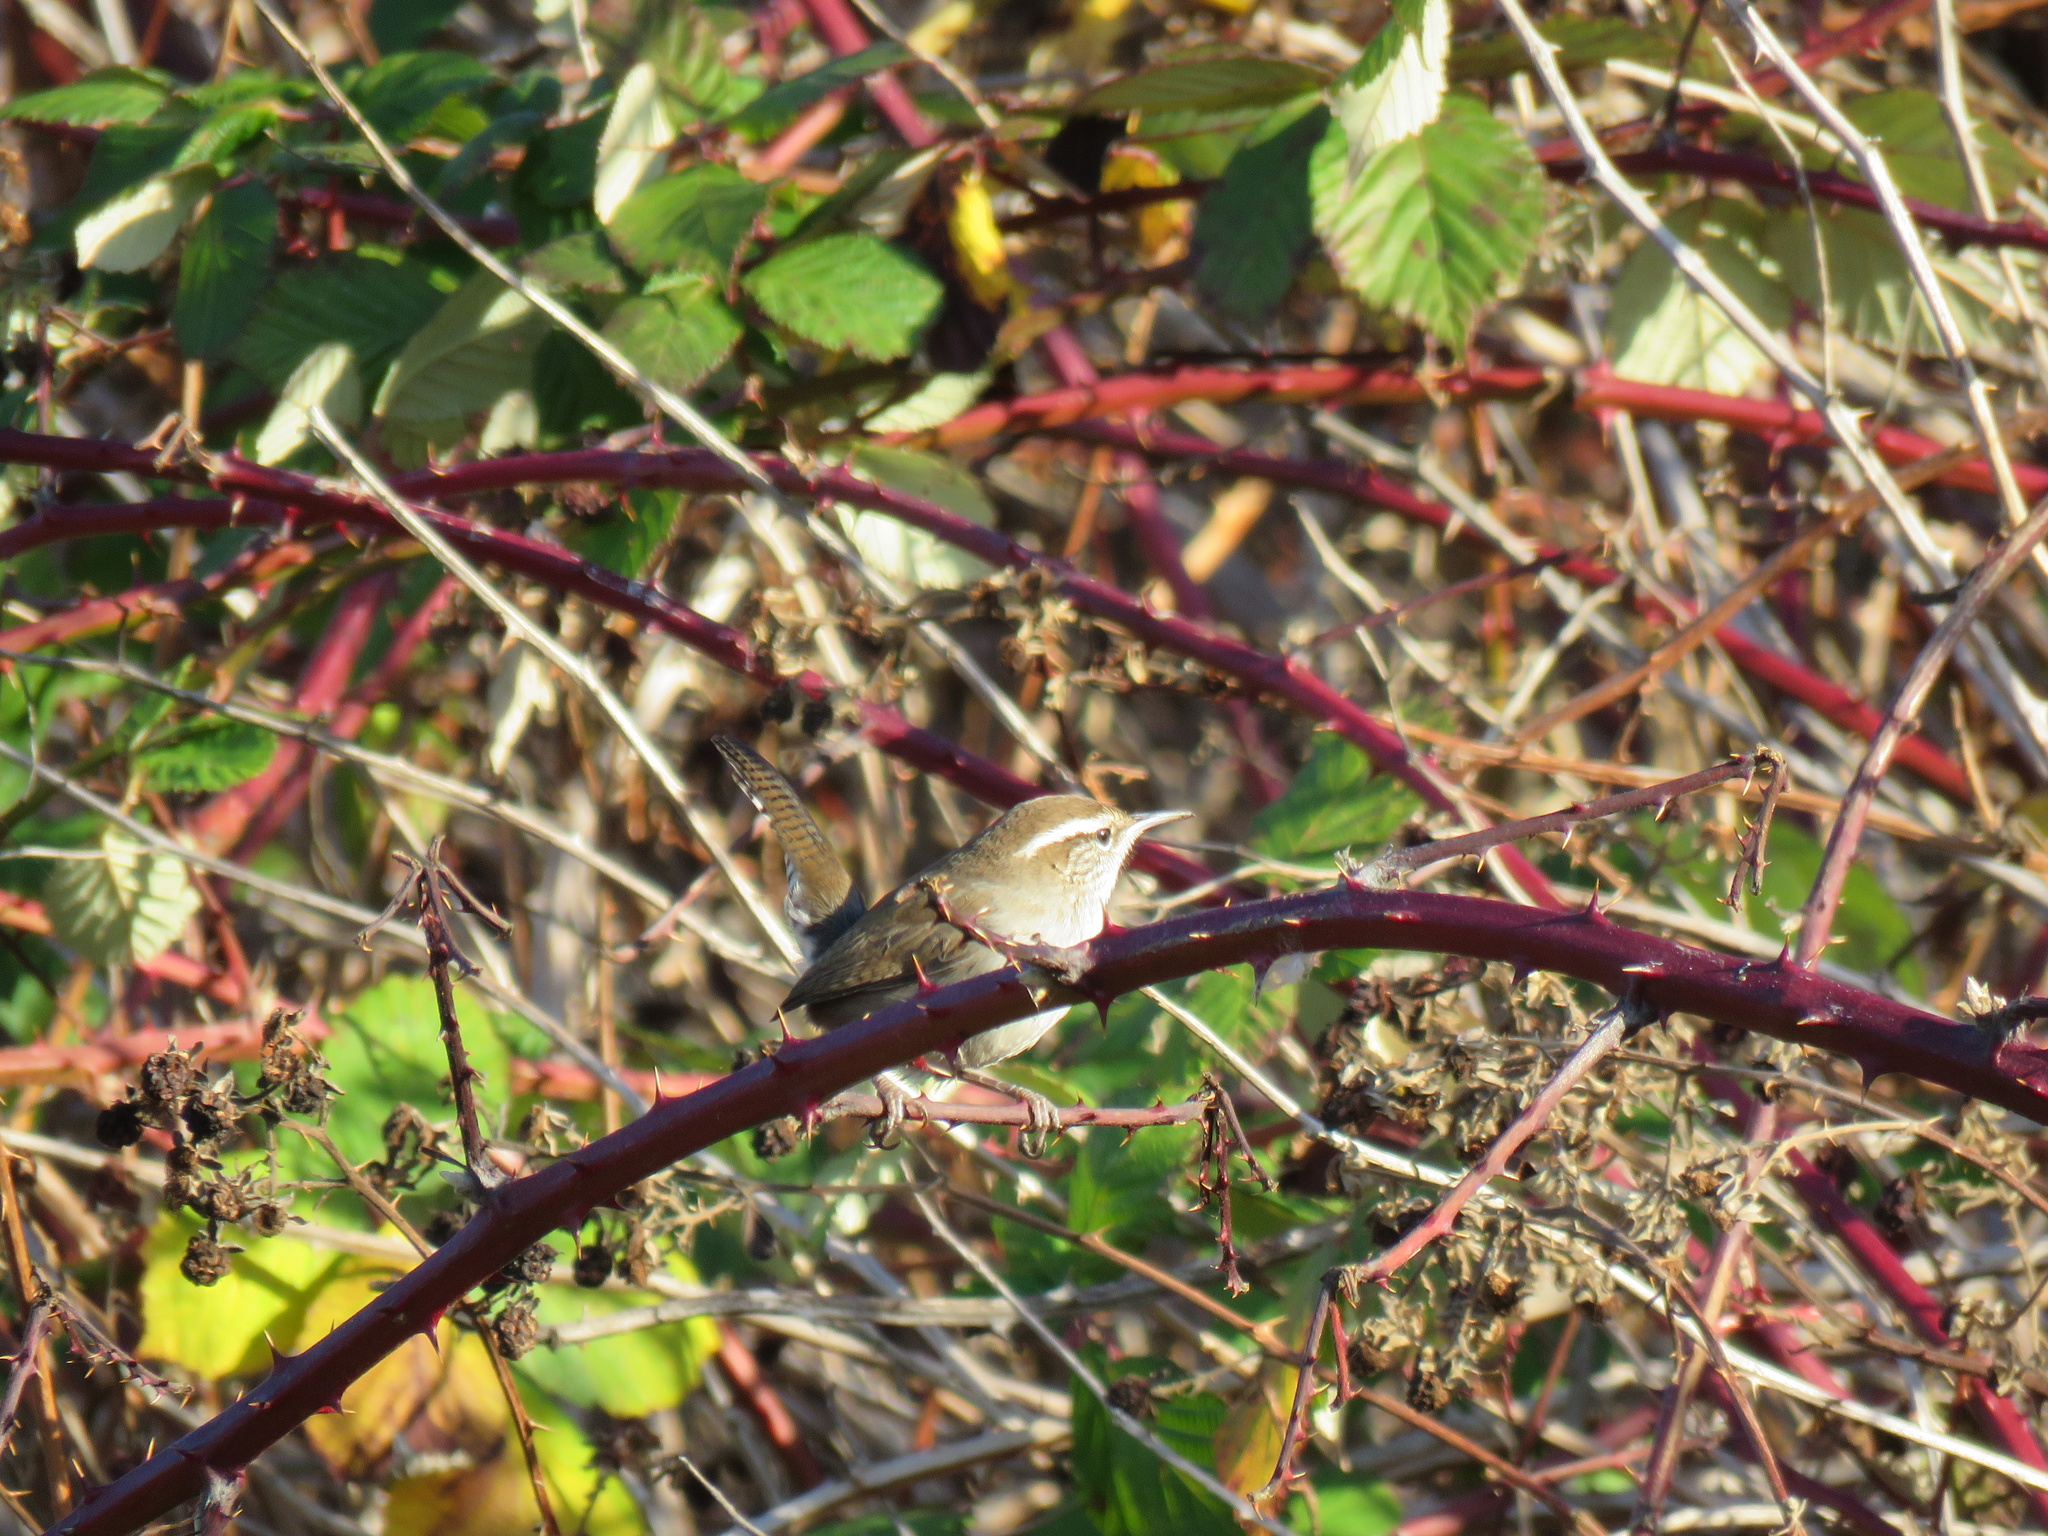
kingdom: Animalia
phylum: Chordata
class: Aves
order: Passeriformes
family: Troglodytidae
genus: Thryomanes
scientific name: Thryomanes bewickii
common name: Bewick's wren
